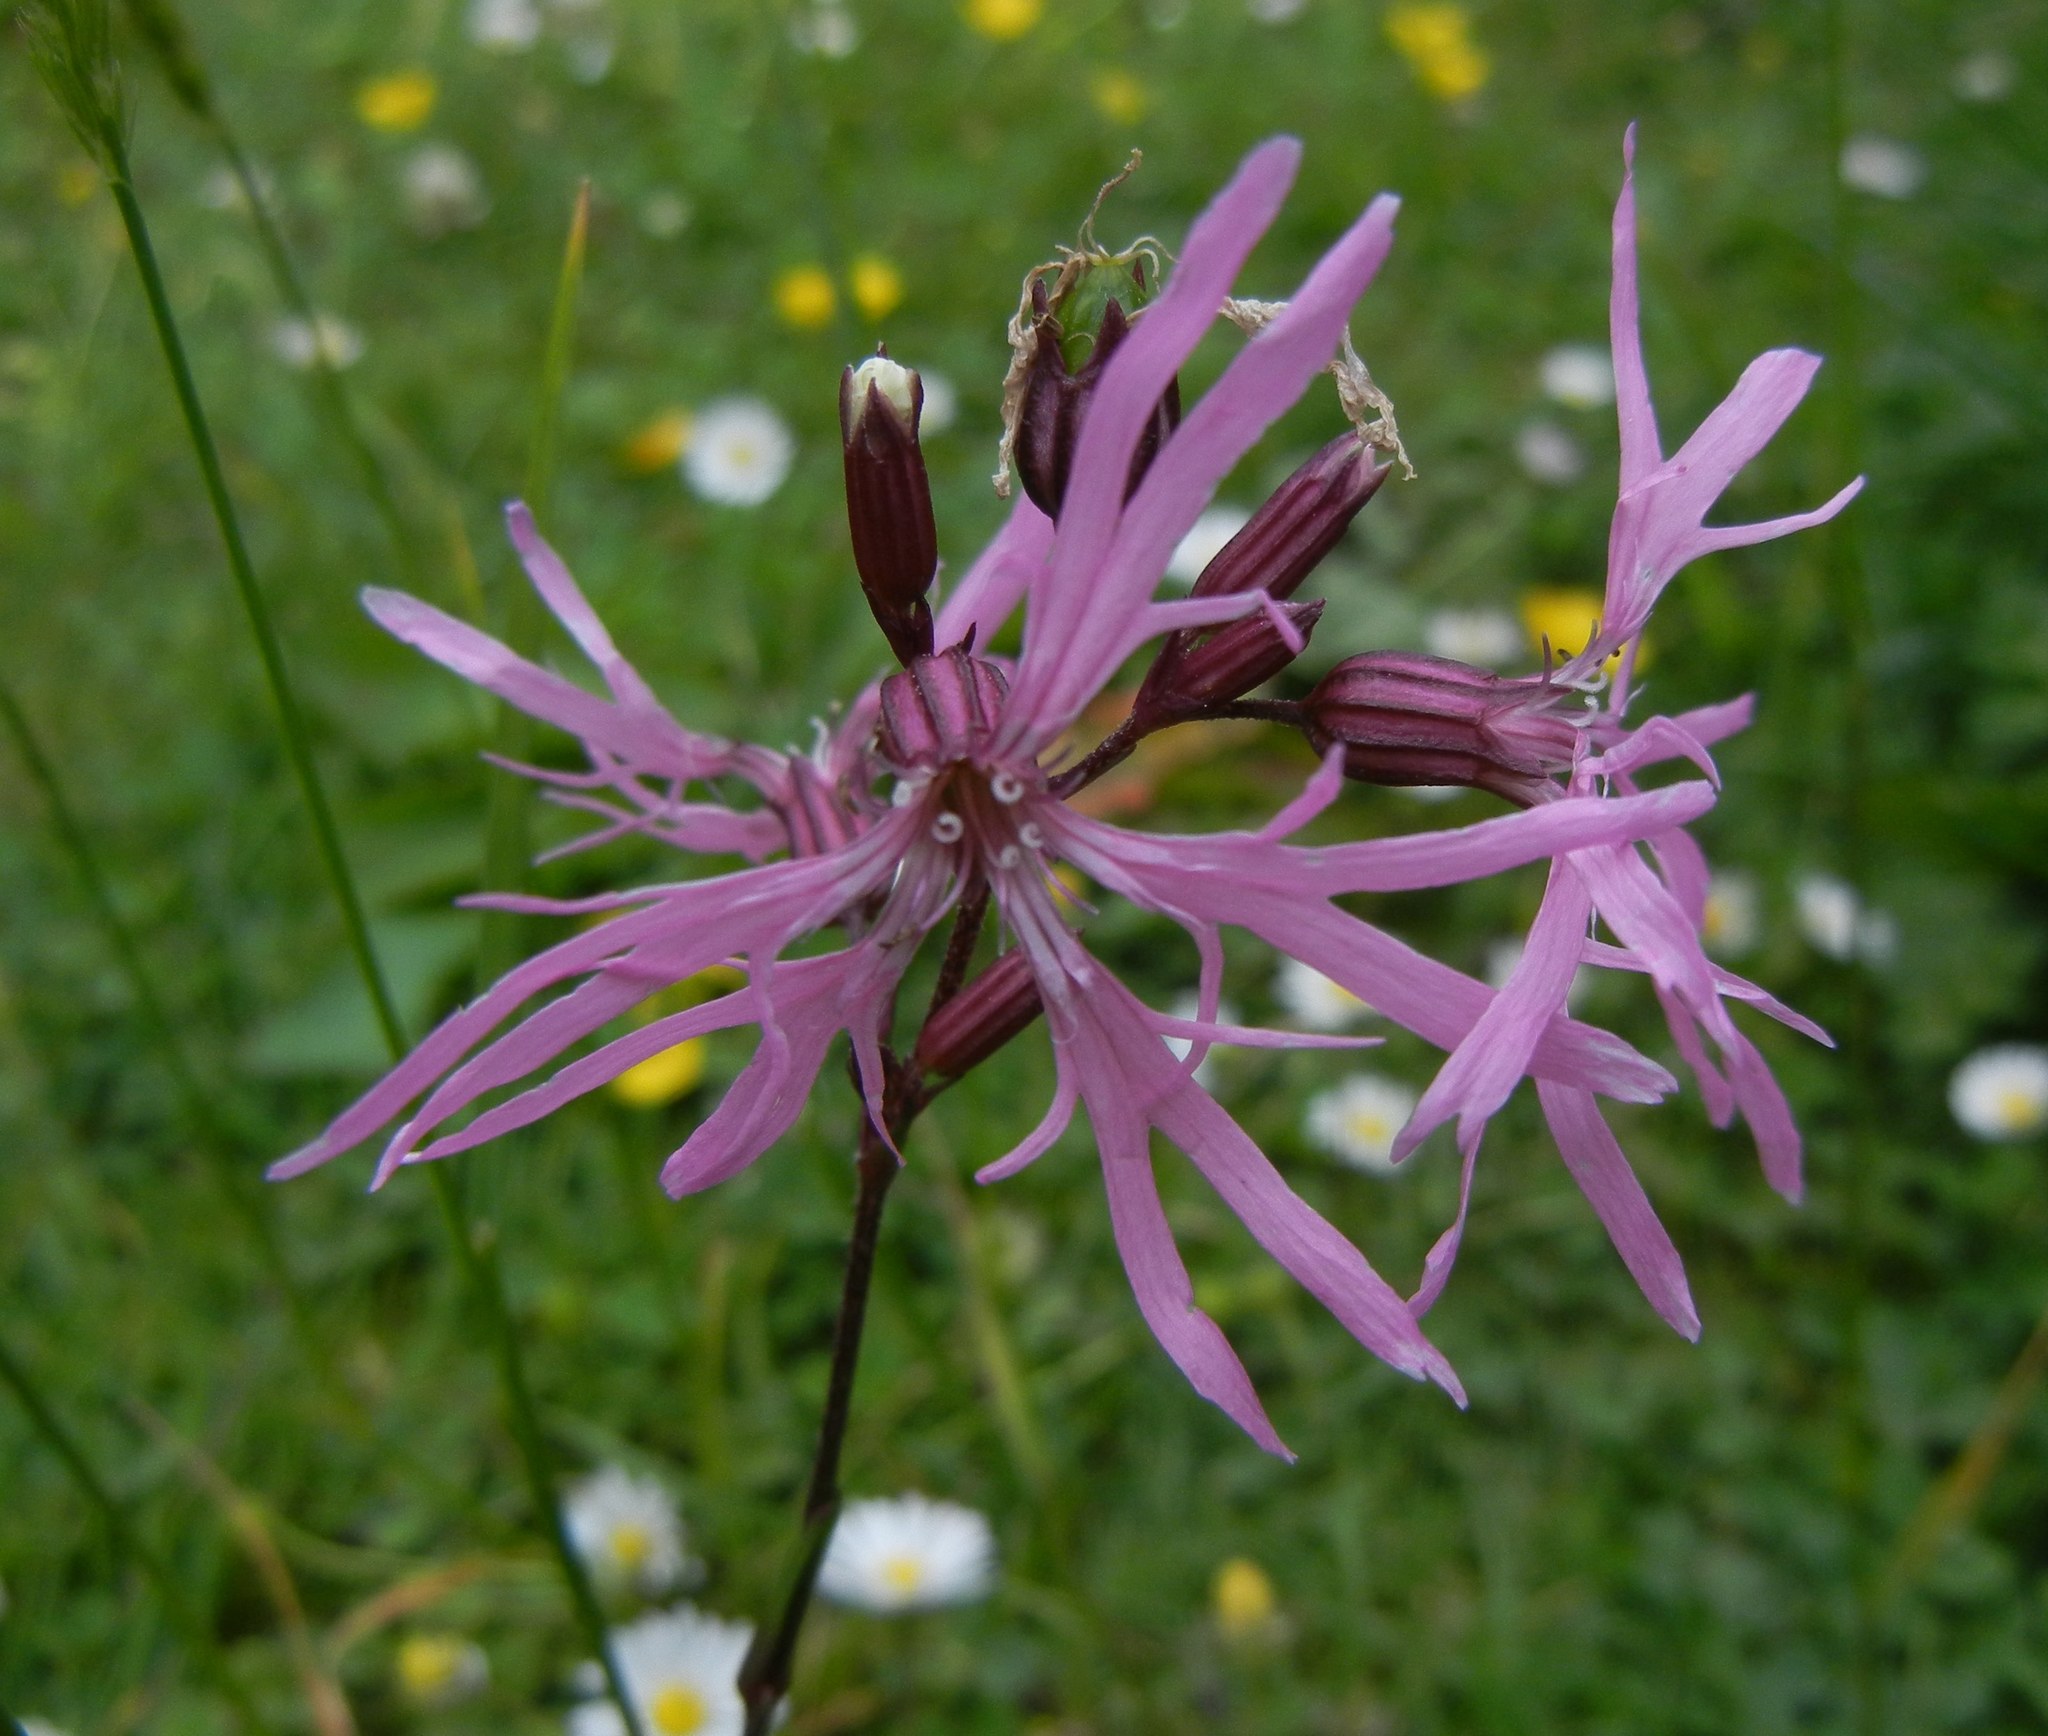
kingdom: Plantae
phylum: Tracheophyta
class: Magnoliopsida
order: Caryophyllales
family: Caryophyllaceae
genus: Silene
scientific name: Silene flos-cuculi
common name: Ragged-robin
